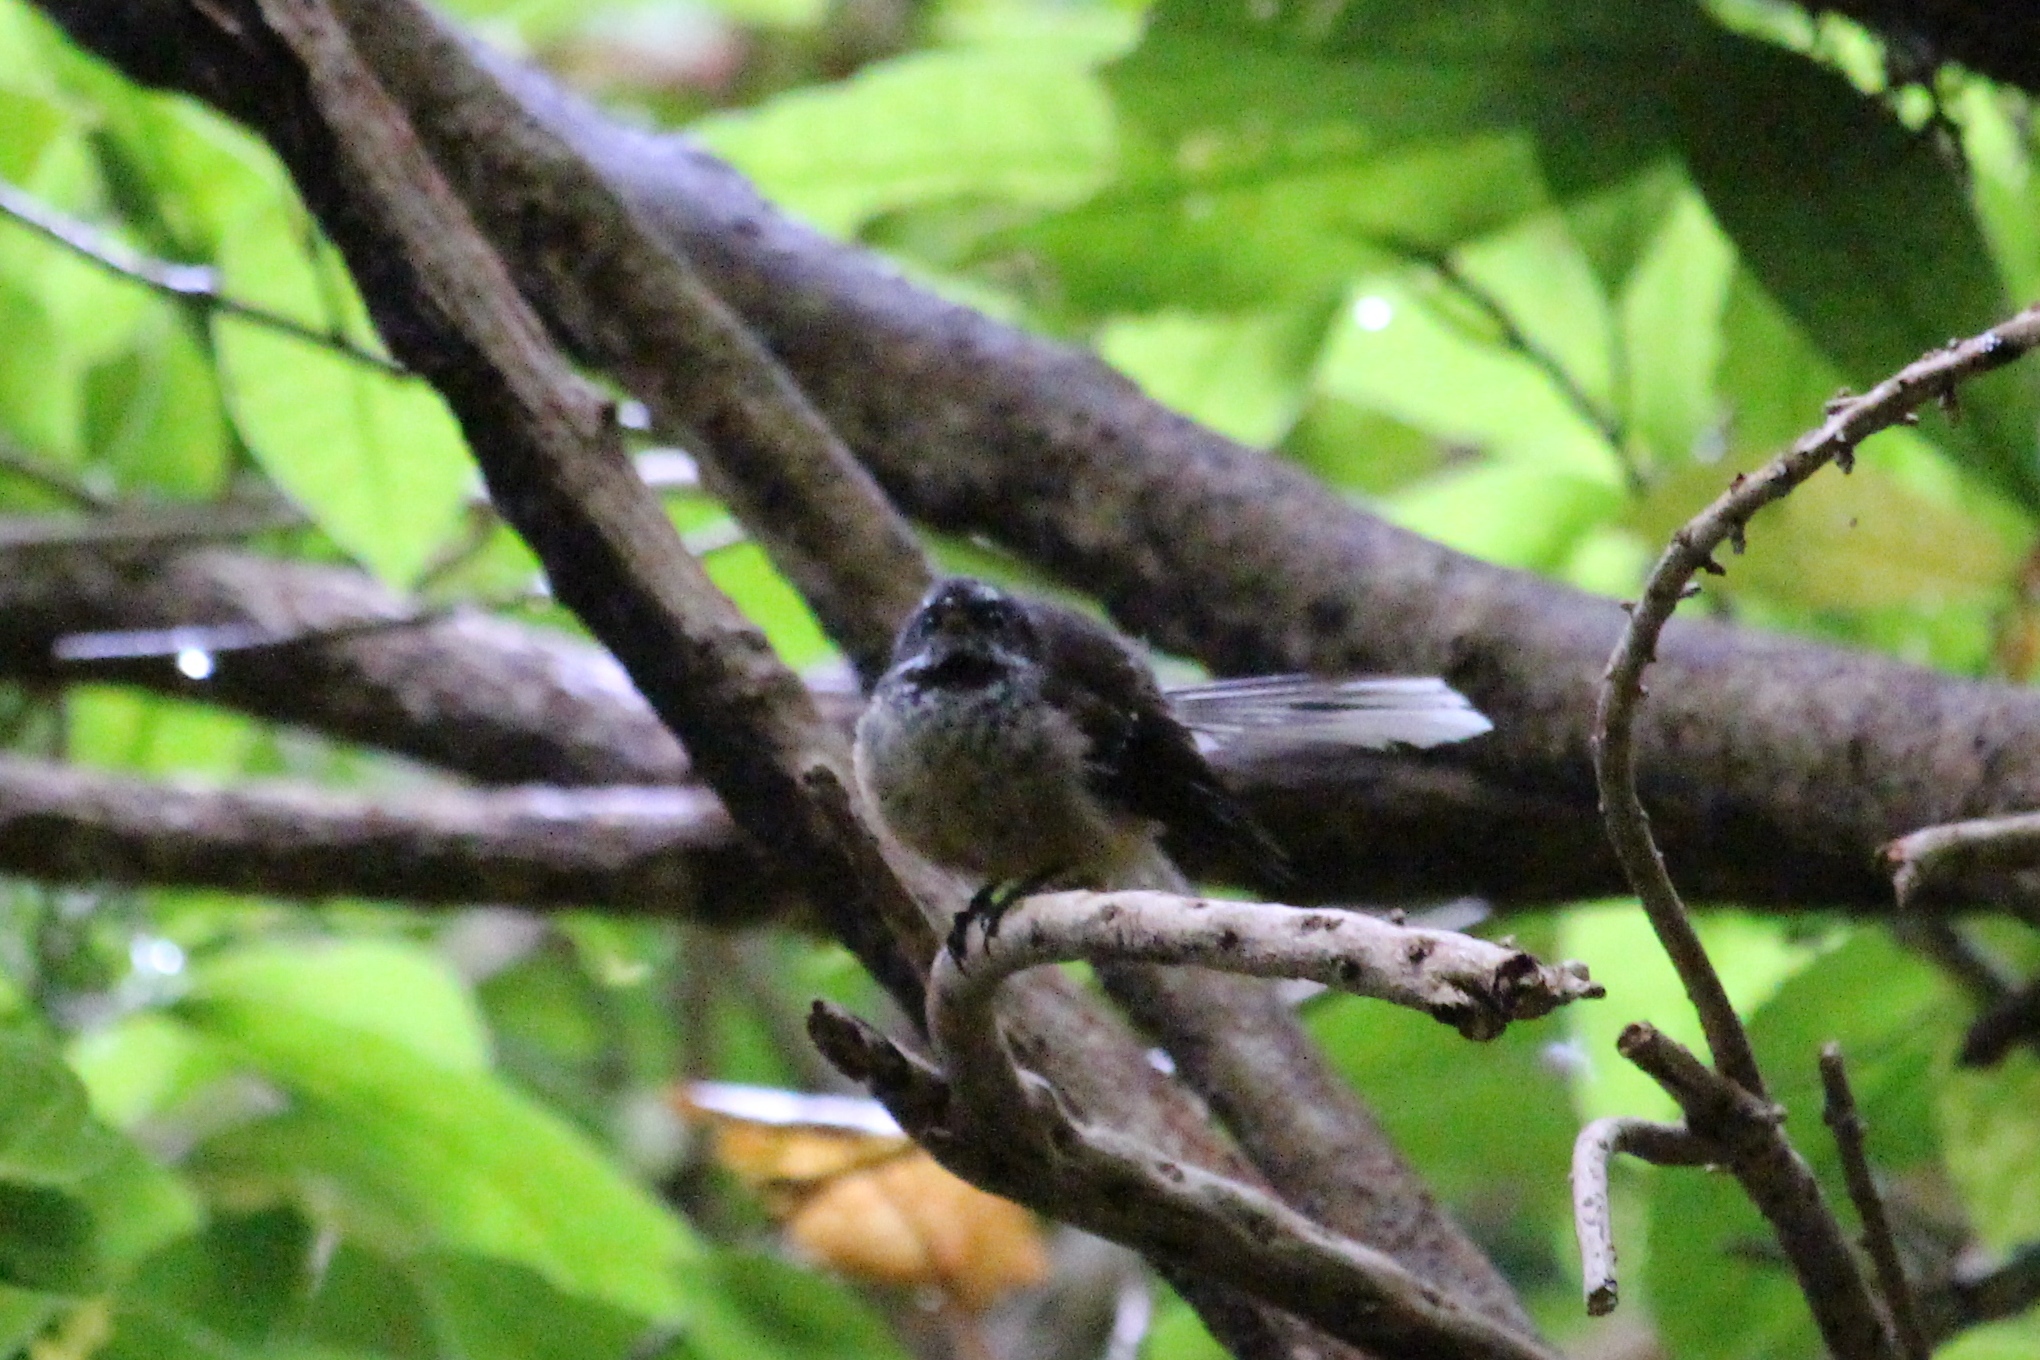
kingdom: Animalia
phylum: Chordata
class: Aves
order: Passeriformes
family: Rhipiduridae
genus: Rhipidura
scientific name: Rhipidura fuliginosa
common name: New zealand fantail
